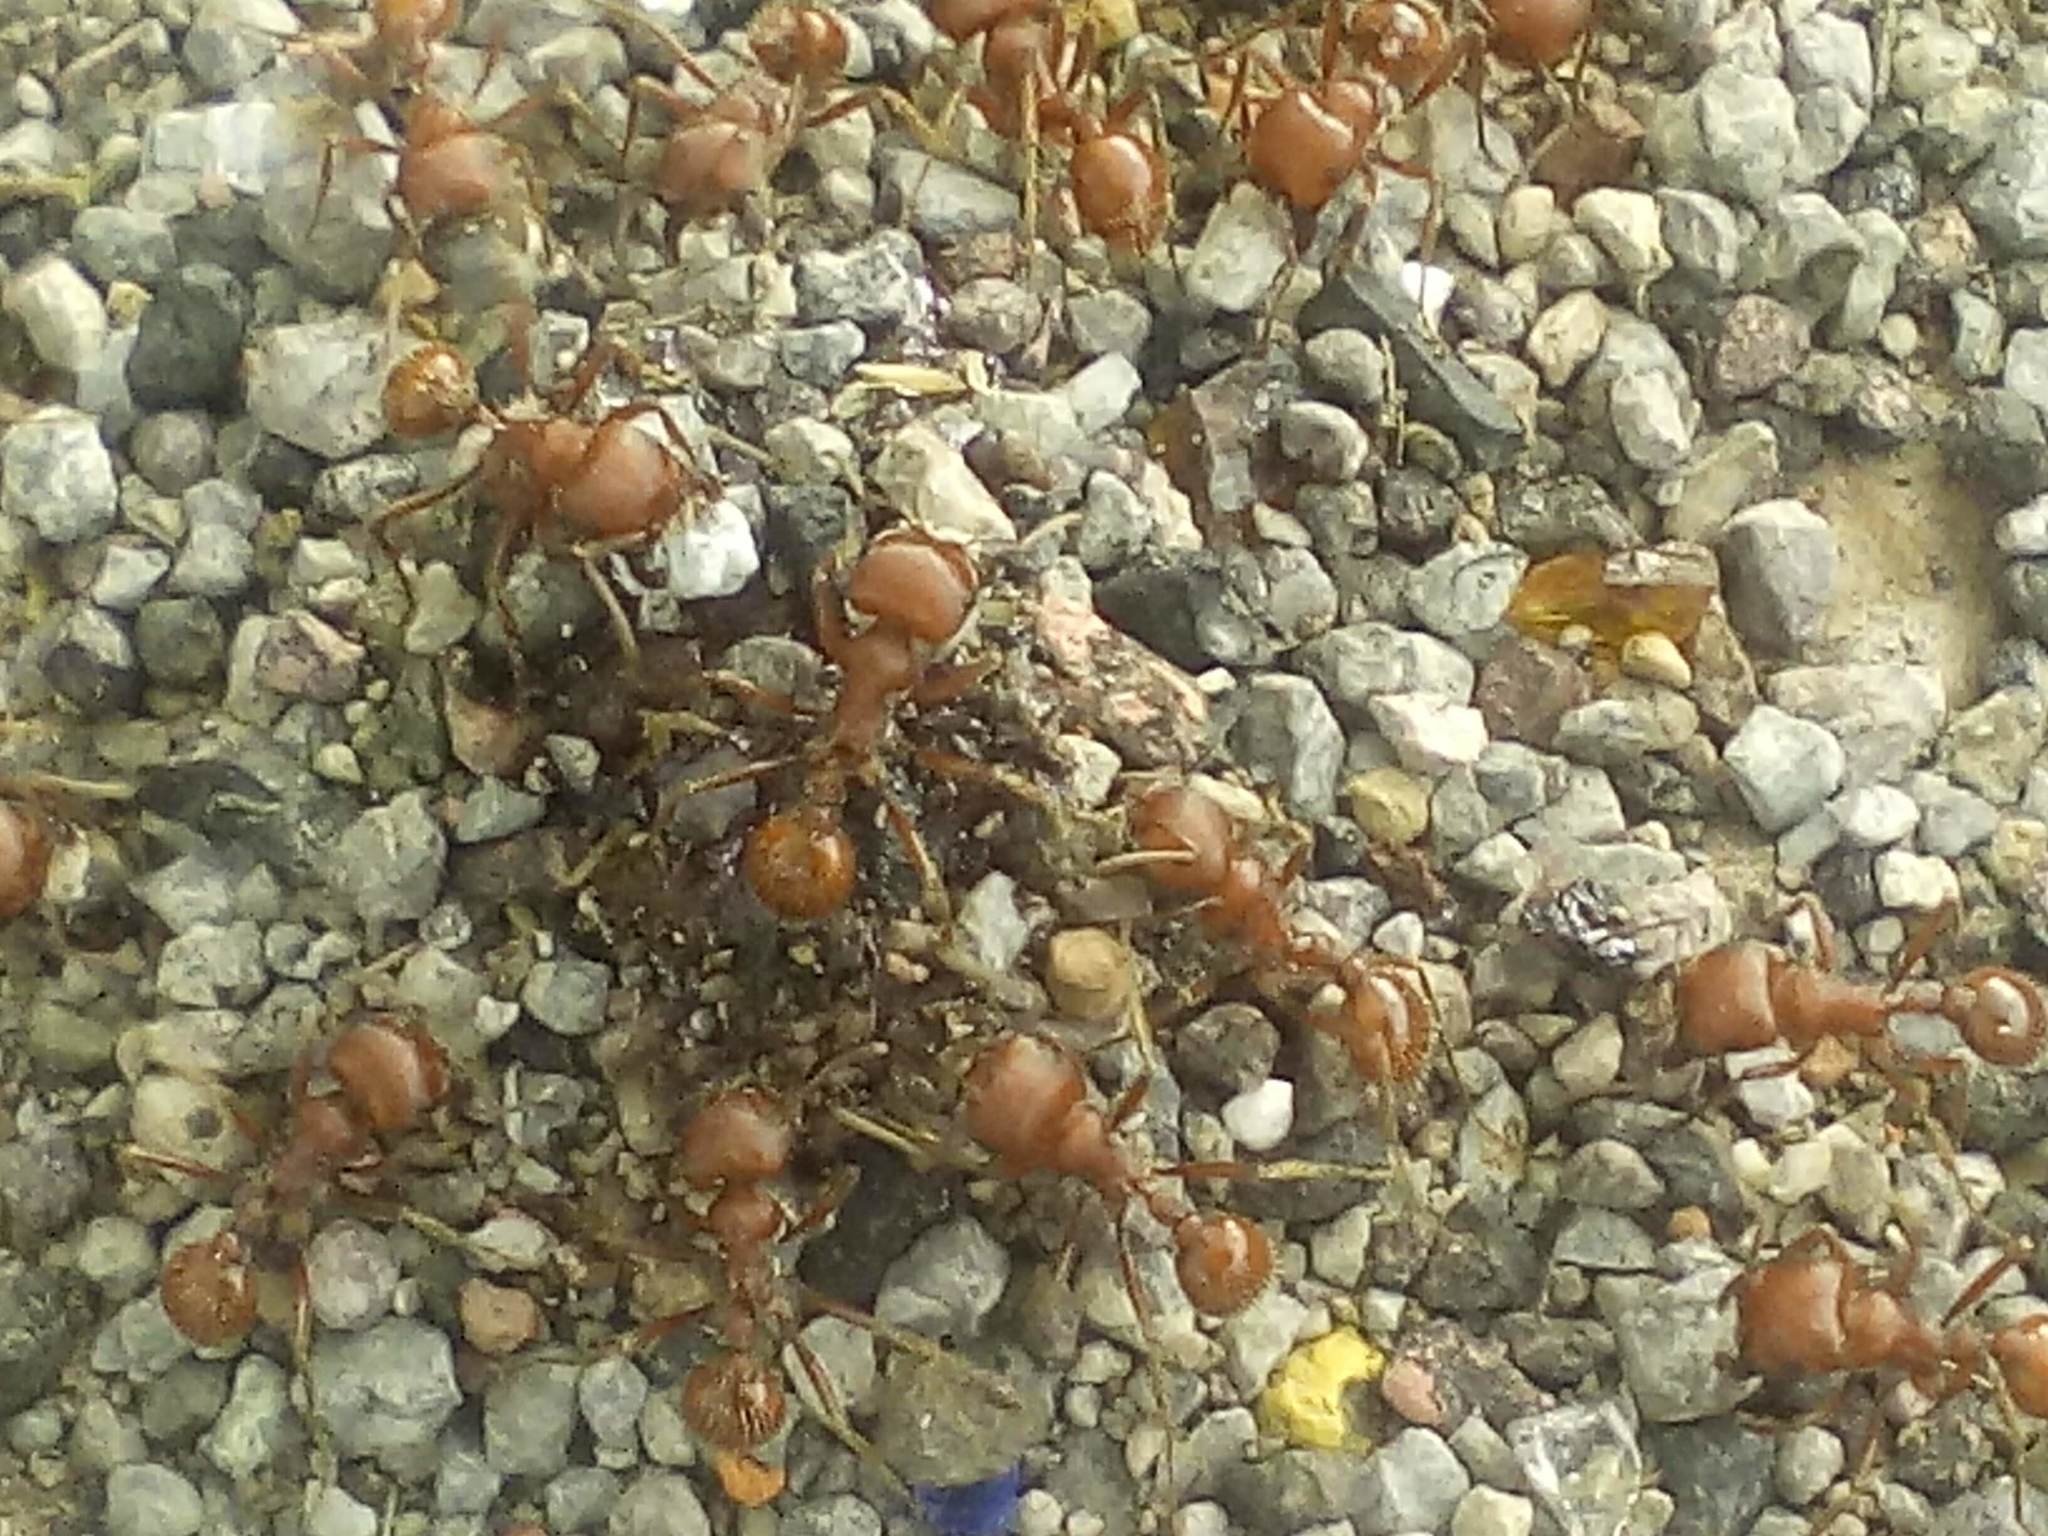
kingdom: Animalia
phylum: Arthropoda
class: Insecta
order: Hymenoptera
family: Formicidae
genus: Pogonomyrmex
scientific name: Pogonomyrmex barbatus
